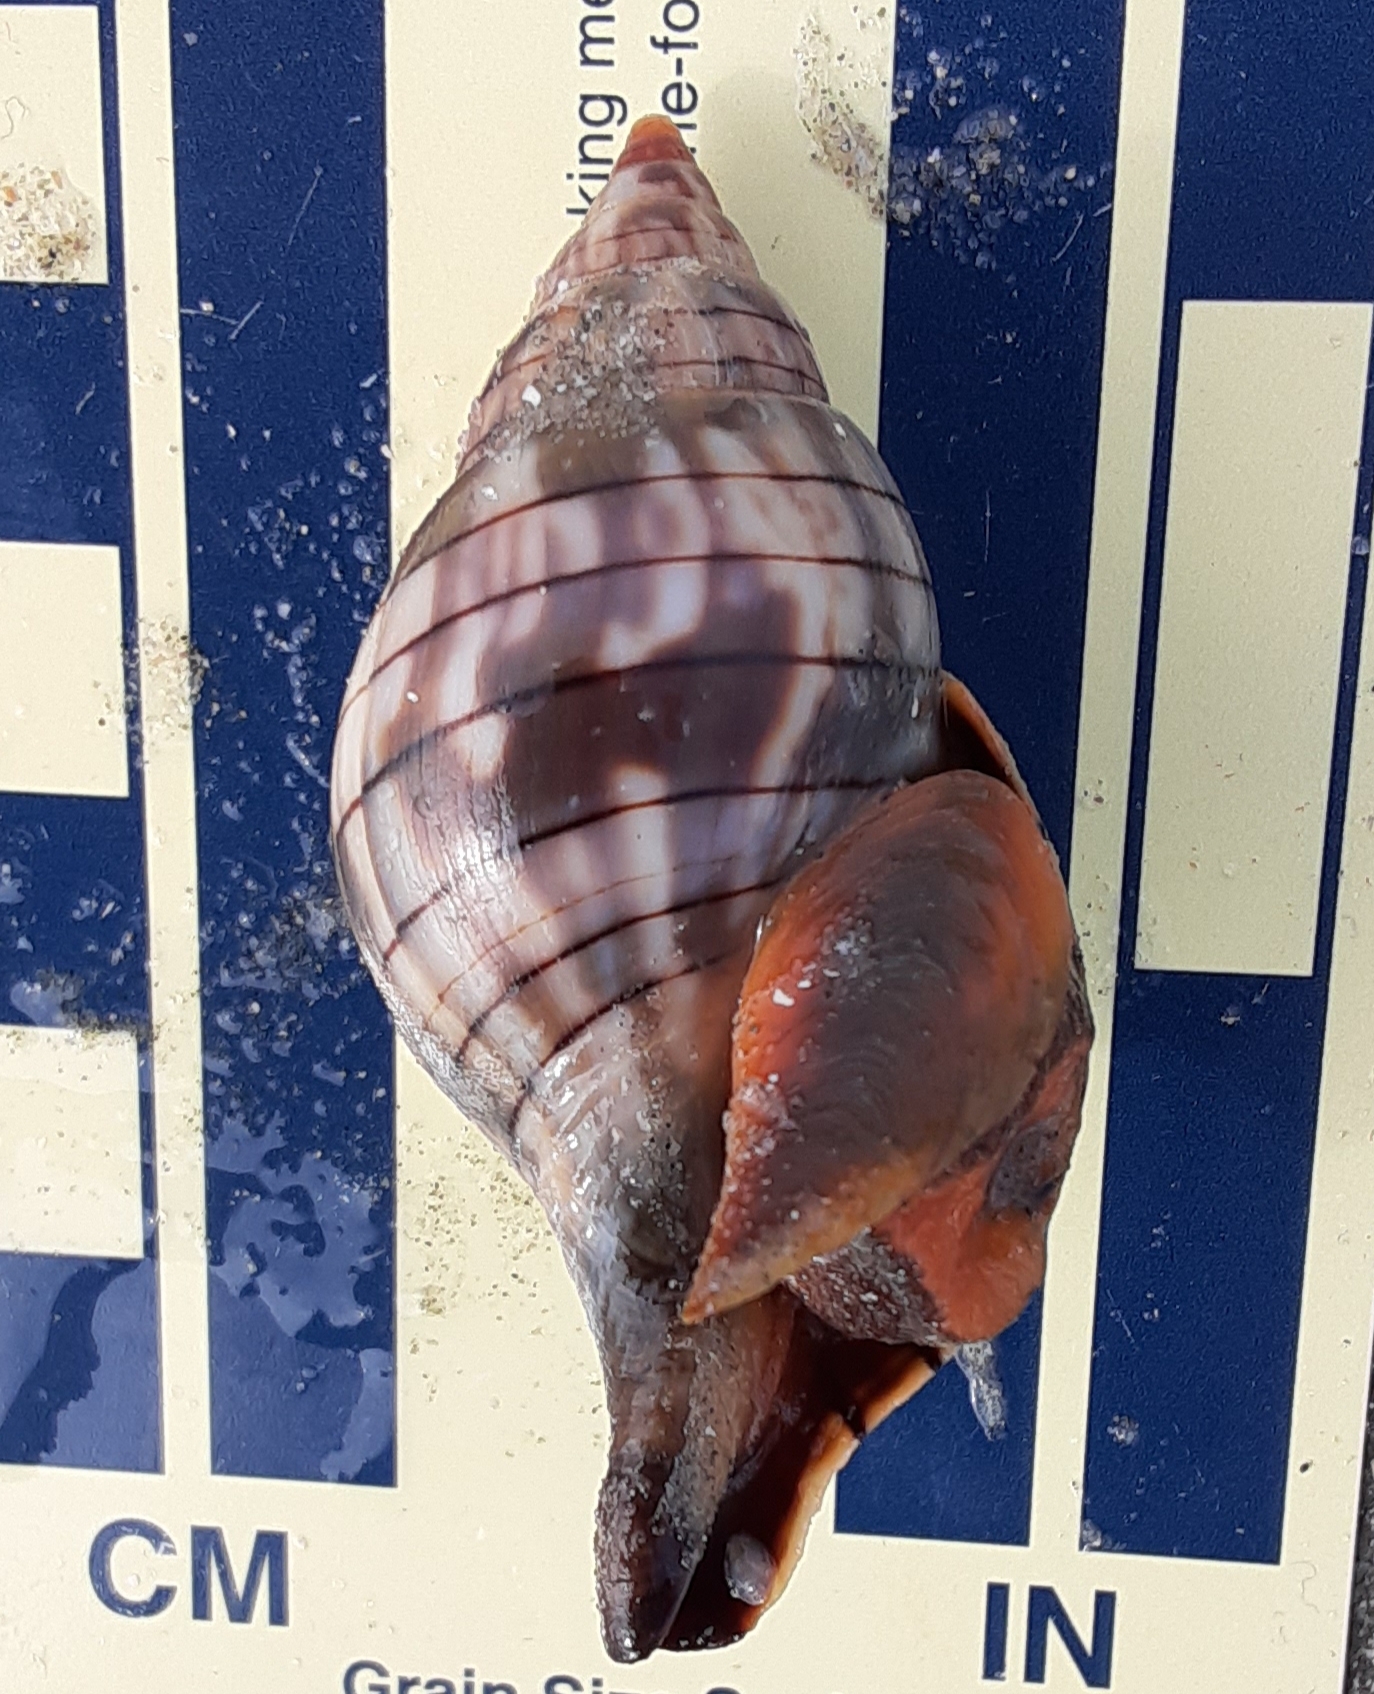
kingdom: Animalia
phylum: Mollusca
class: Gastropoda
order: Neogastropoda
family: Fasciolariidae
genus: Cinctura
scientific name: Cinctura hunteria
